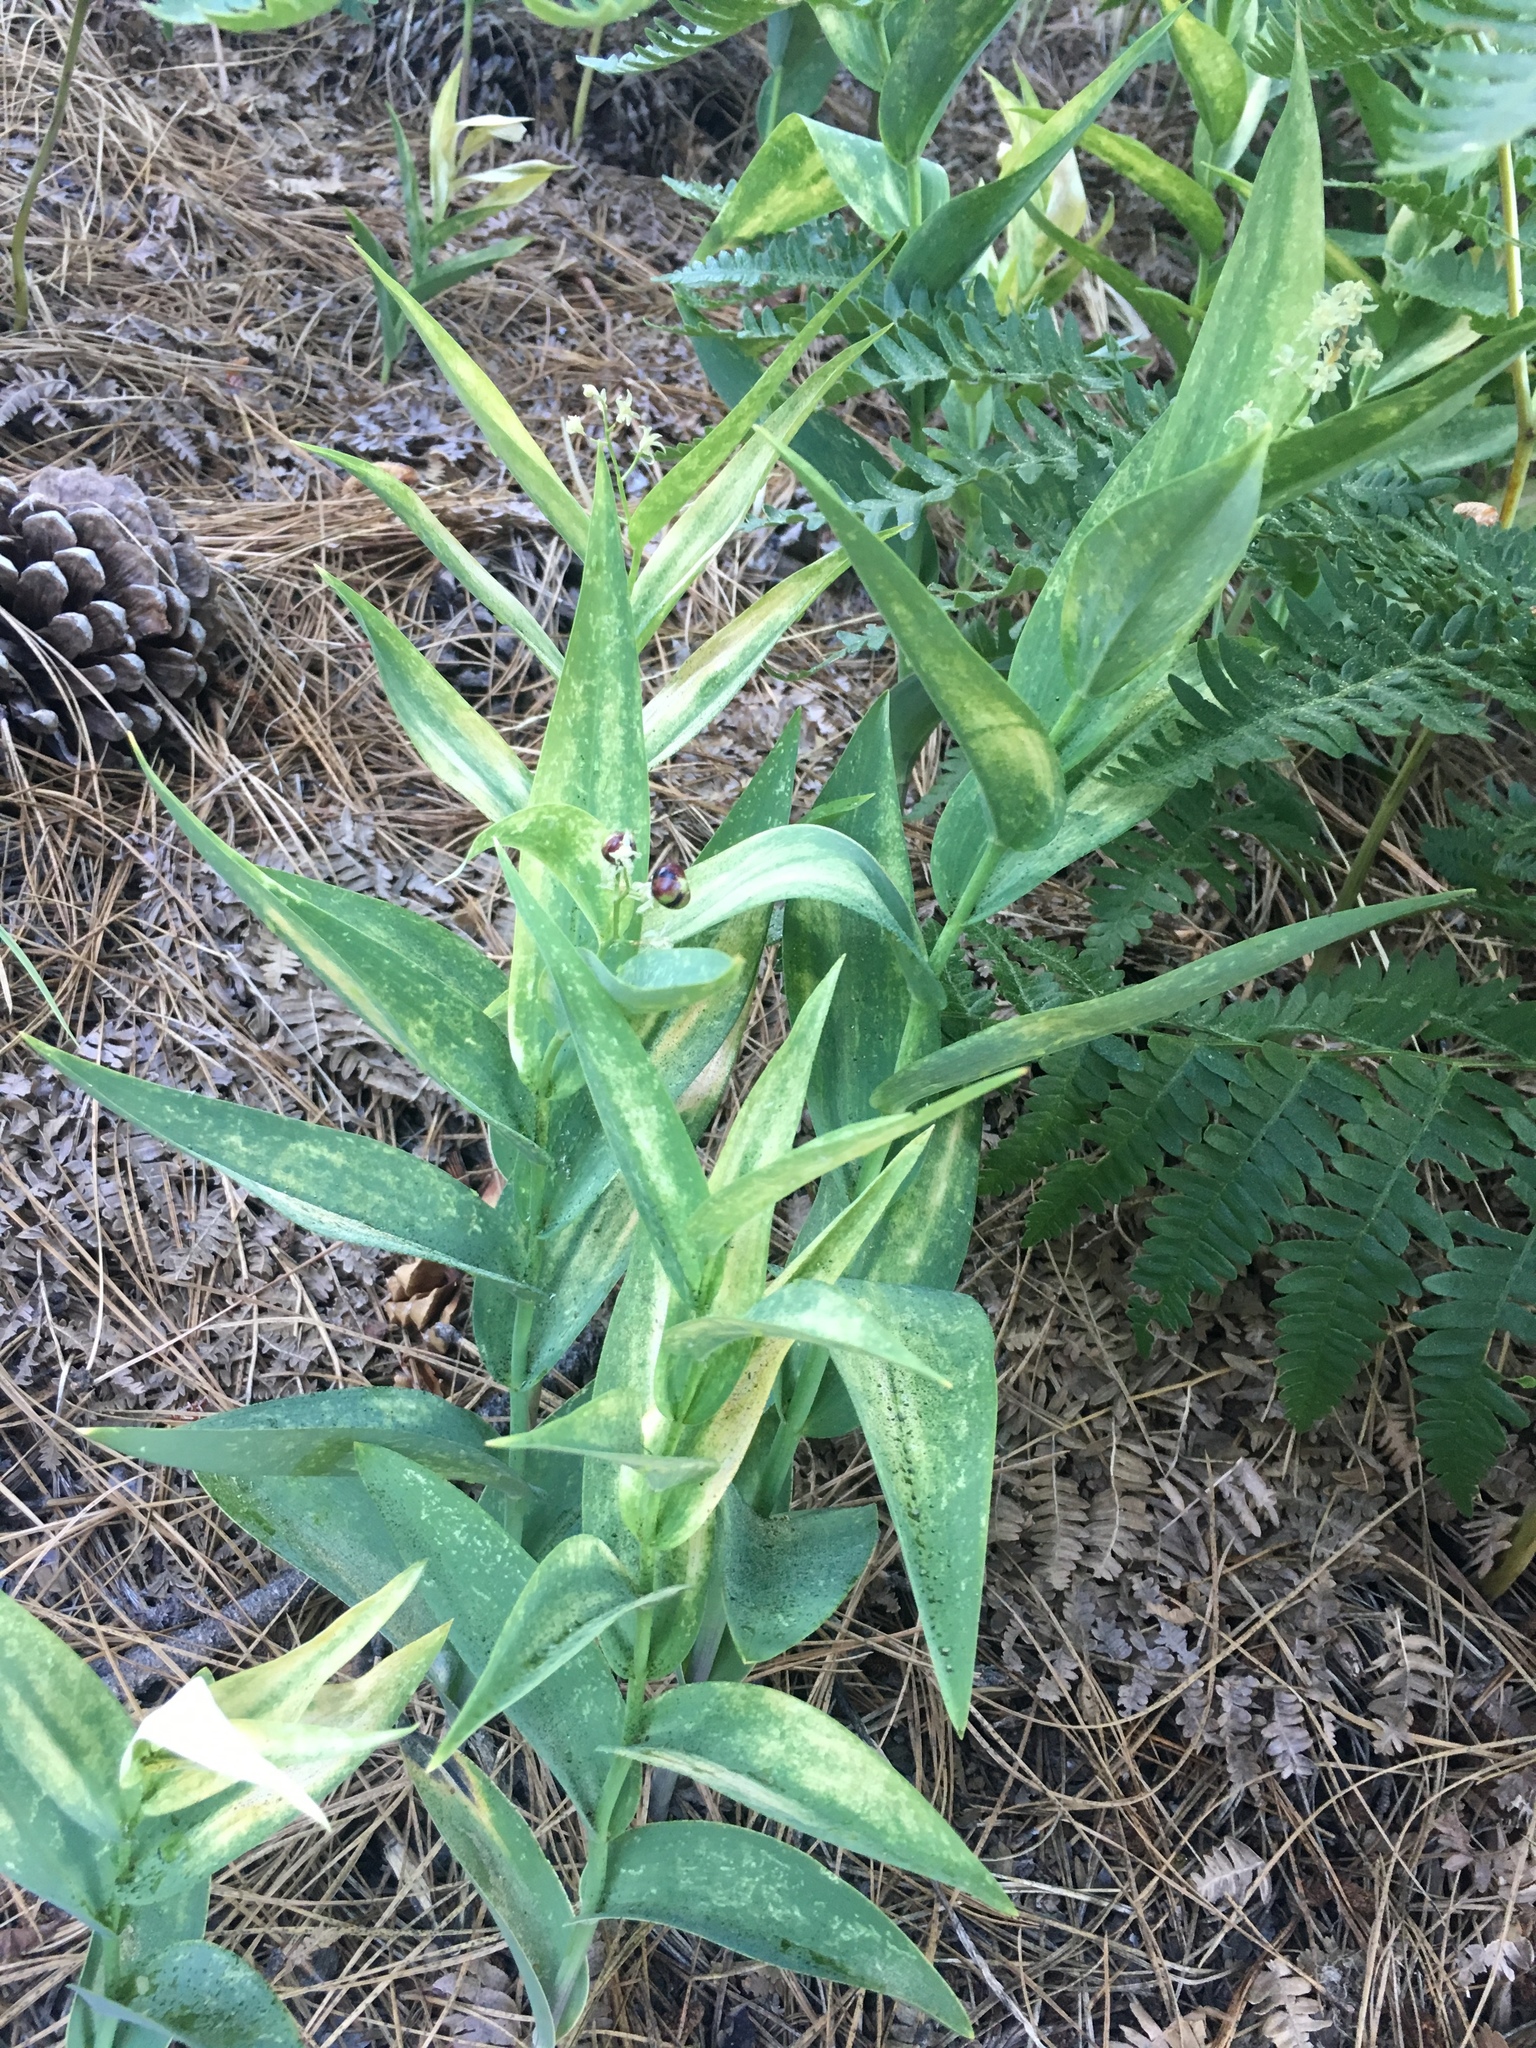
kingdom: Plantae
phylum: Tracheophyta
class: Liliopsida
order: Asparagales
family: Asparagaceae
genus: Maianthemum
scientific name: Maianthemum stellatum
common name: Little false solomon's seal
